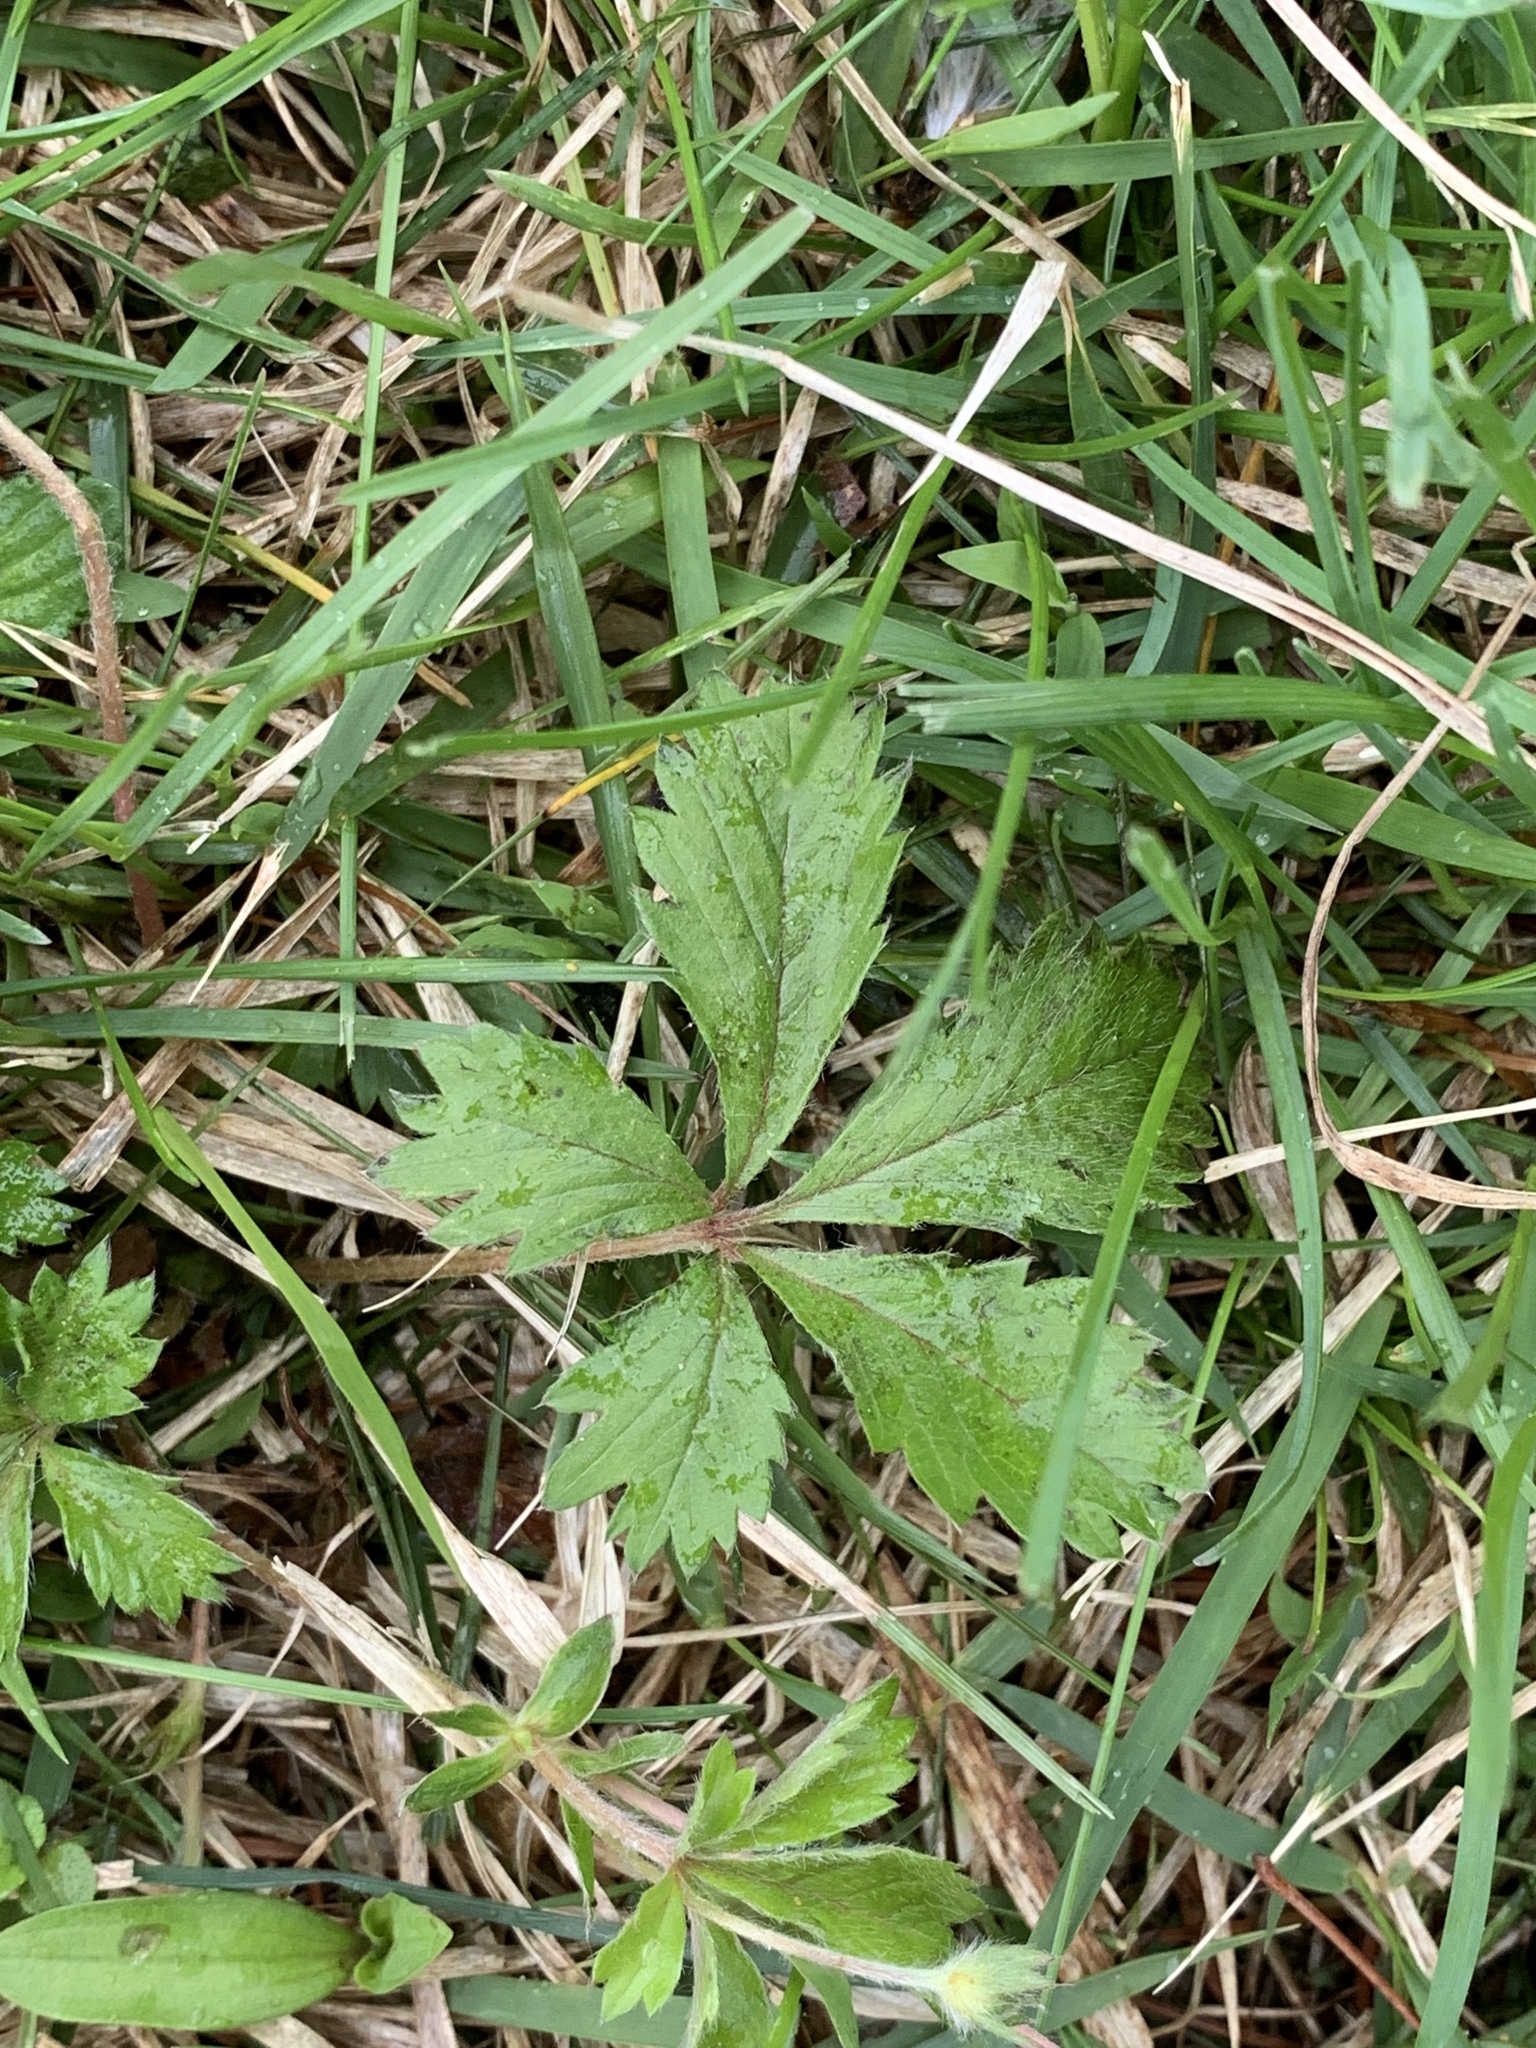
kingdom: Plantae
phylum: Tracheophyta
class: Magnoliopsida
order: Rosales
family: Rosaceae
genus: Potentilla
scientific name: Potentilla canadensis
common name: Canada cinquefoil
